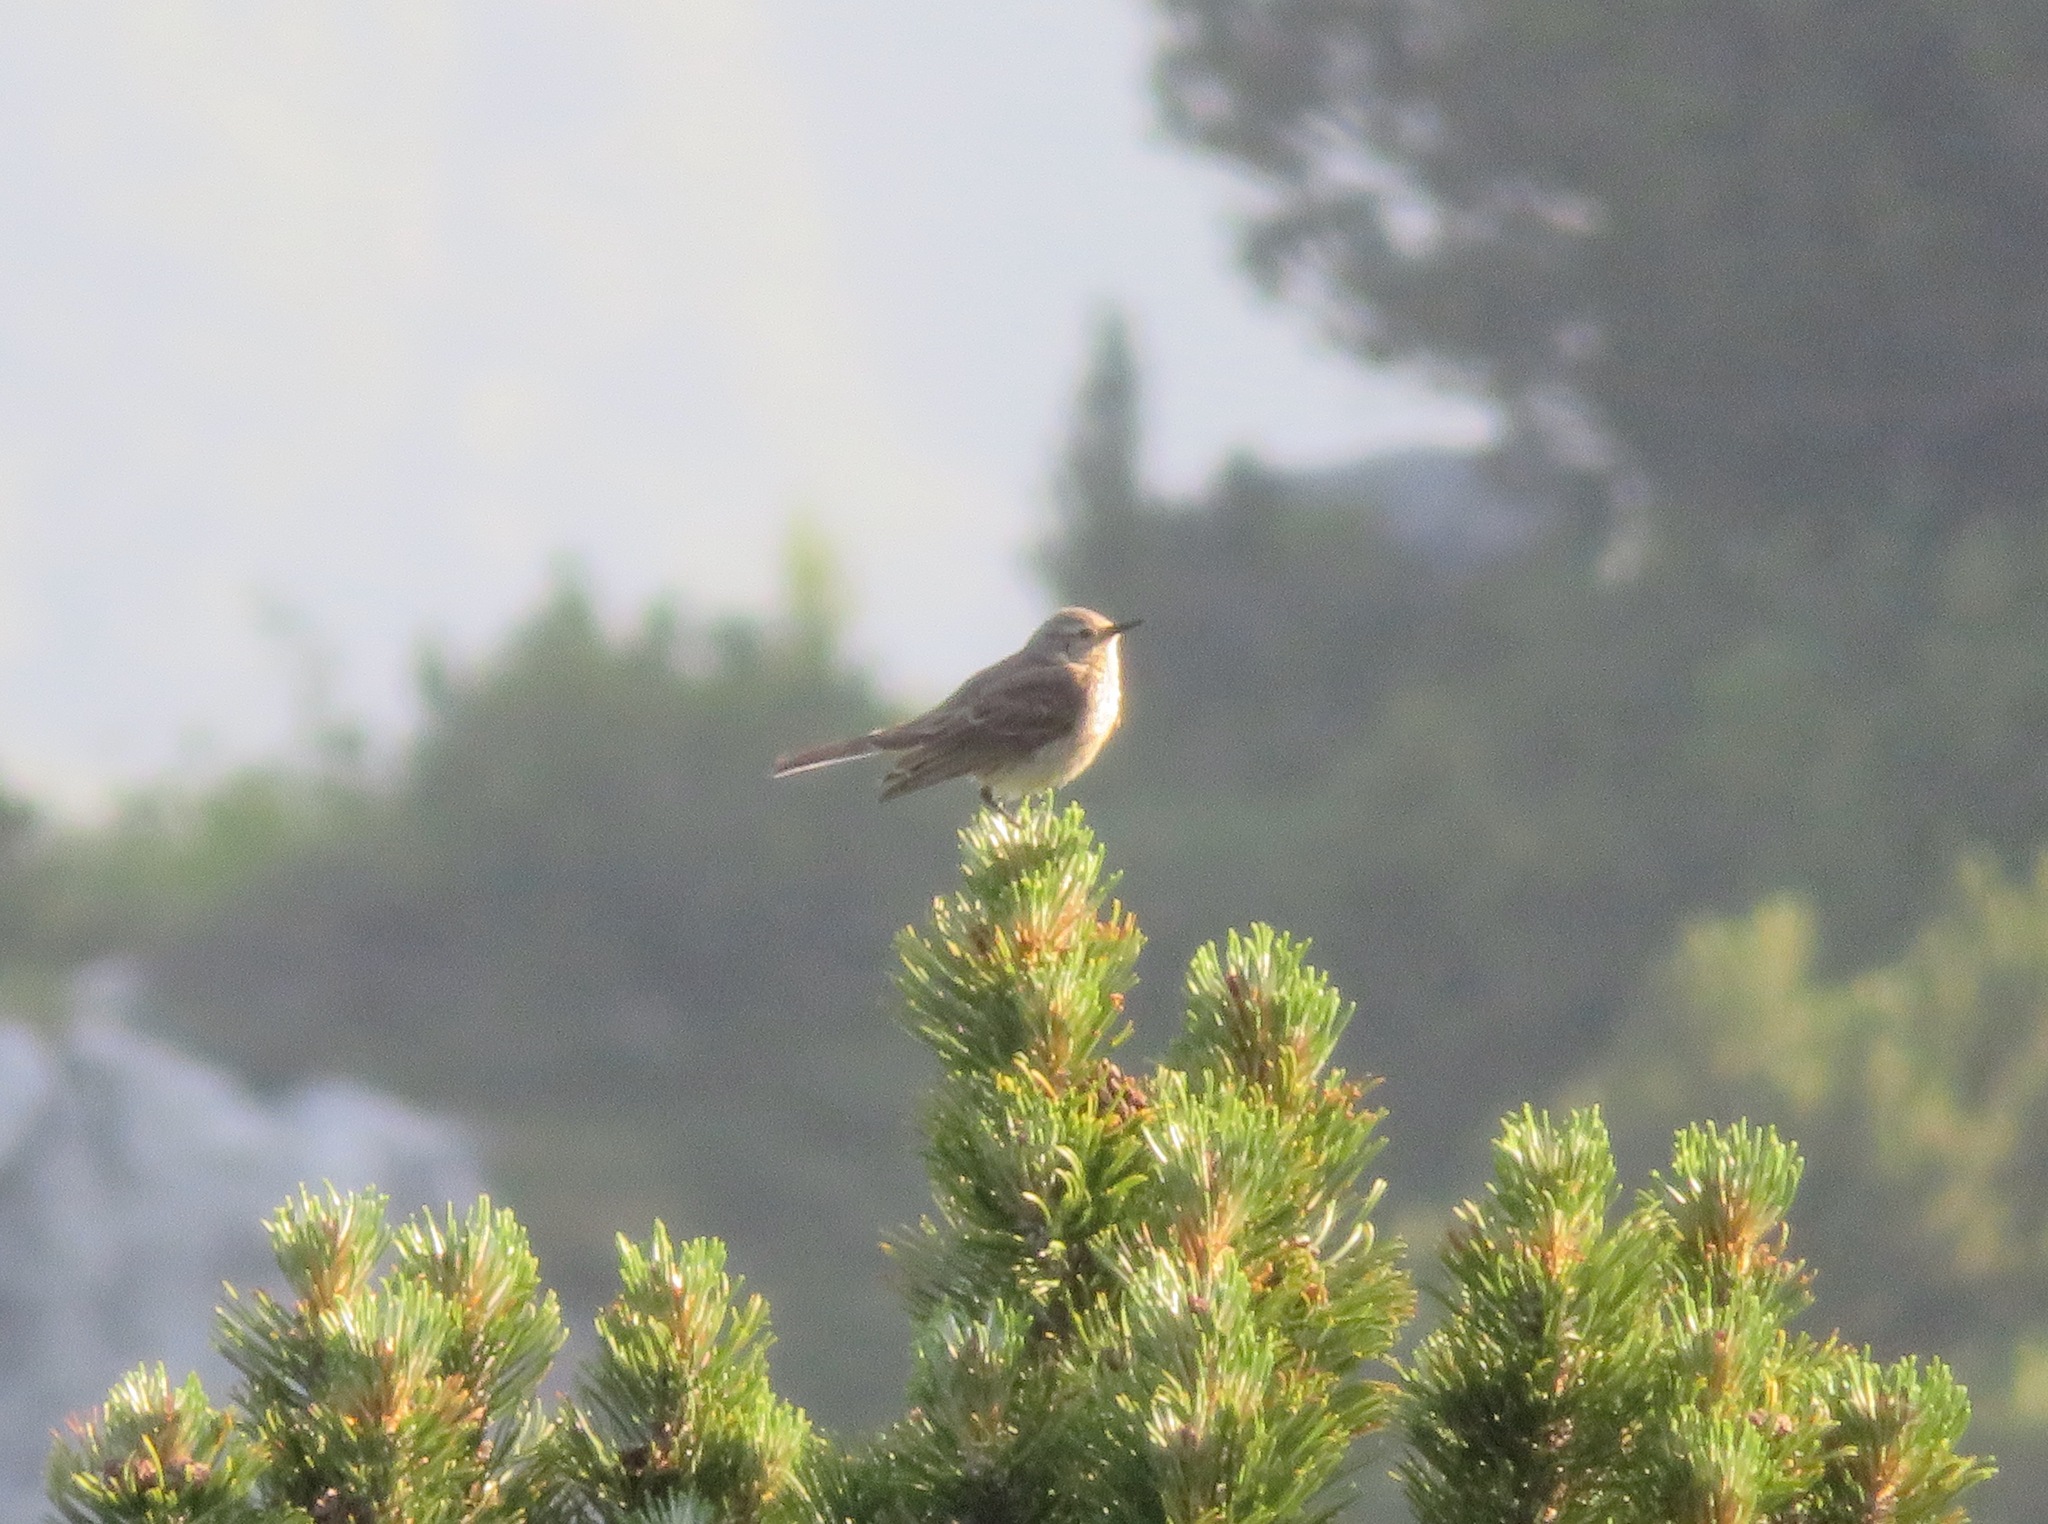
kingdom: Animalia
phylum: Chordata
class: Aves
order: Passeriformes
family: Motacillidae
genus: Anthus
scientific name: Anthus spinoletta
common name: Water pipit
